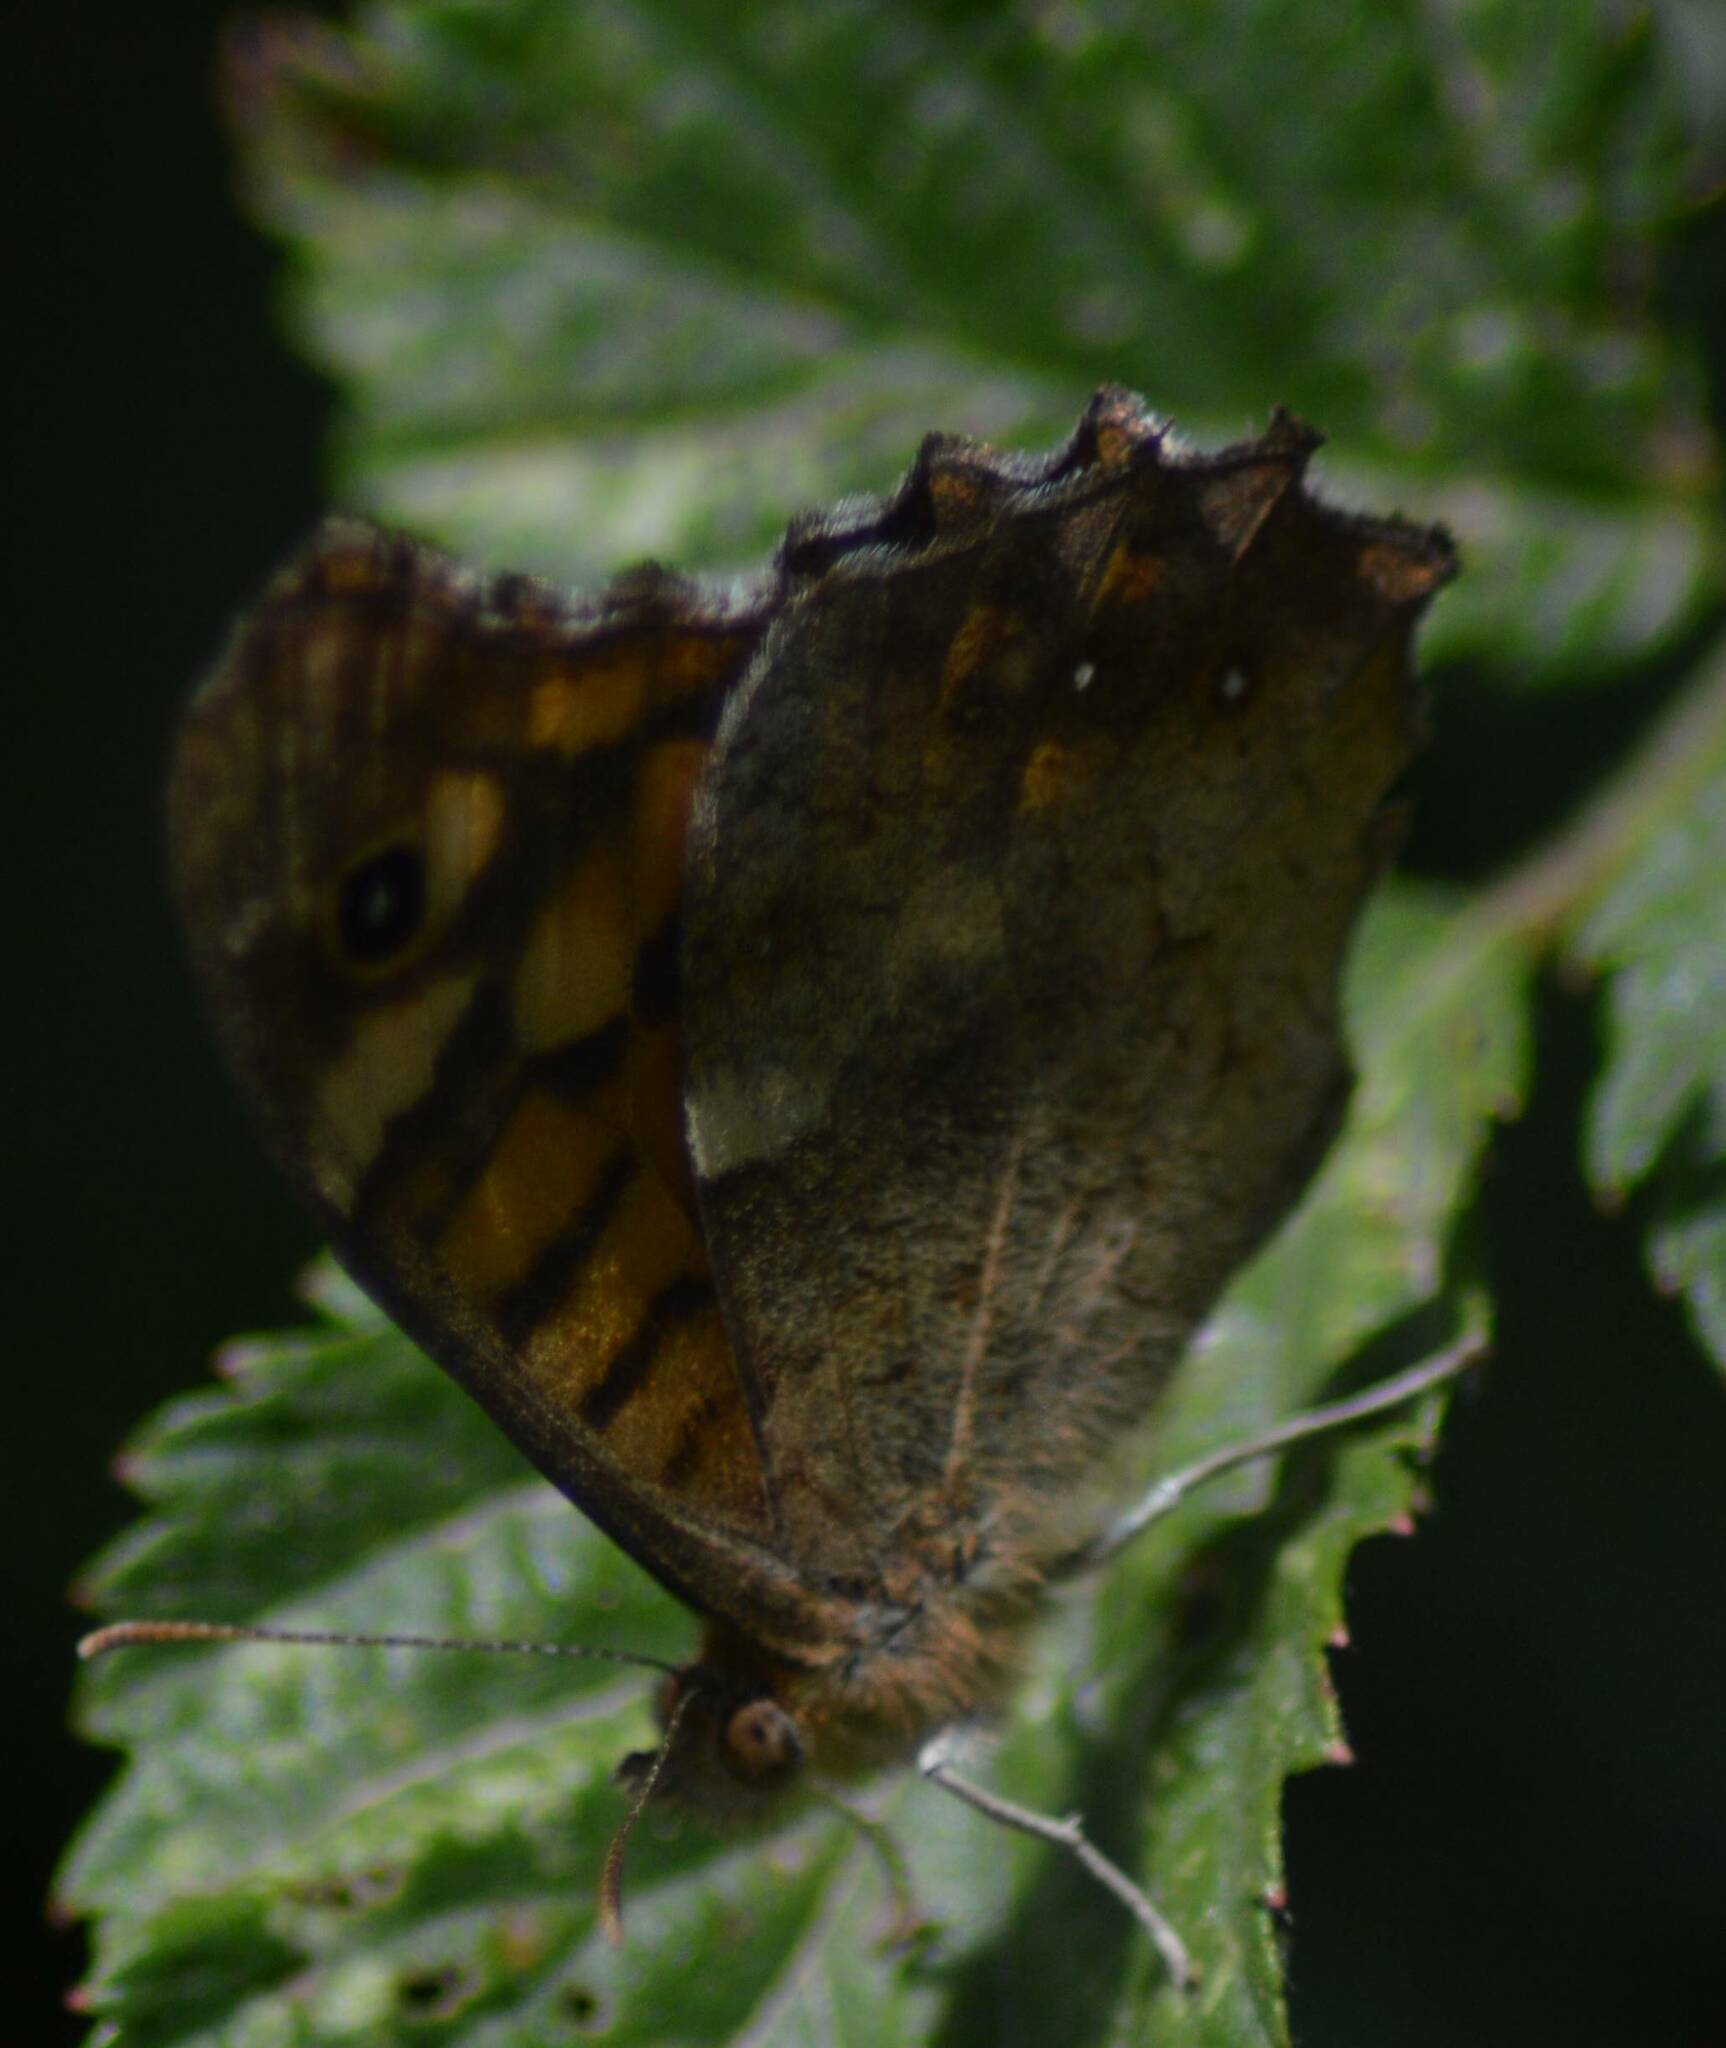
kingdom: Animalia
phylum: Arthropoda
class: Insecta
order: Lepidoptera
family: Nymphalidae
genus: Pararge
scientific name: Pararge aegeria
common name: Speckled wood
